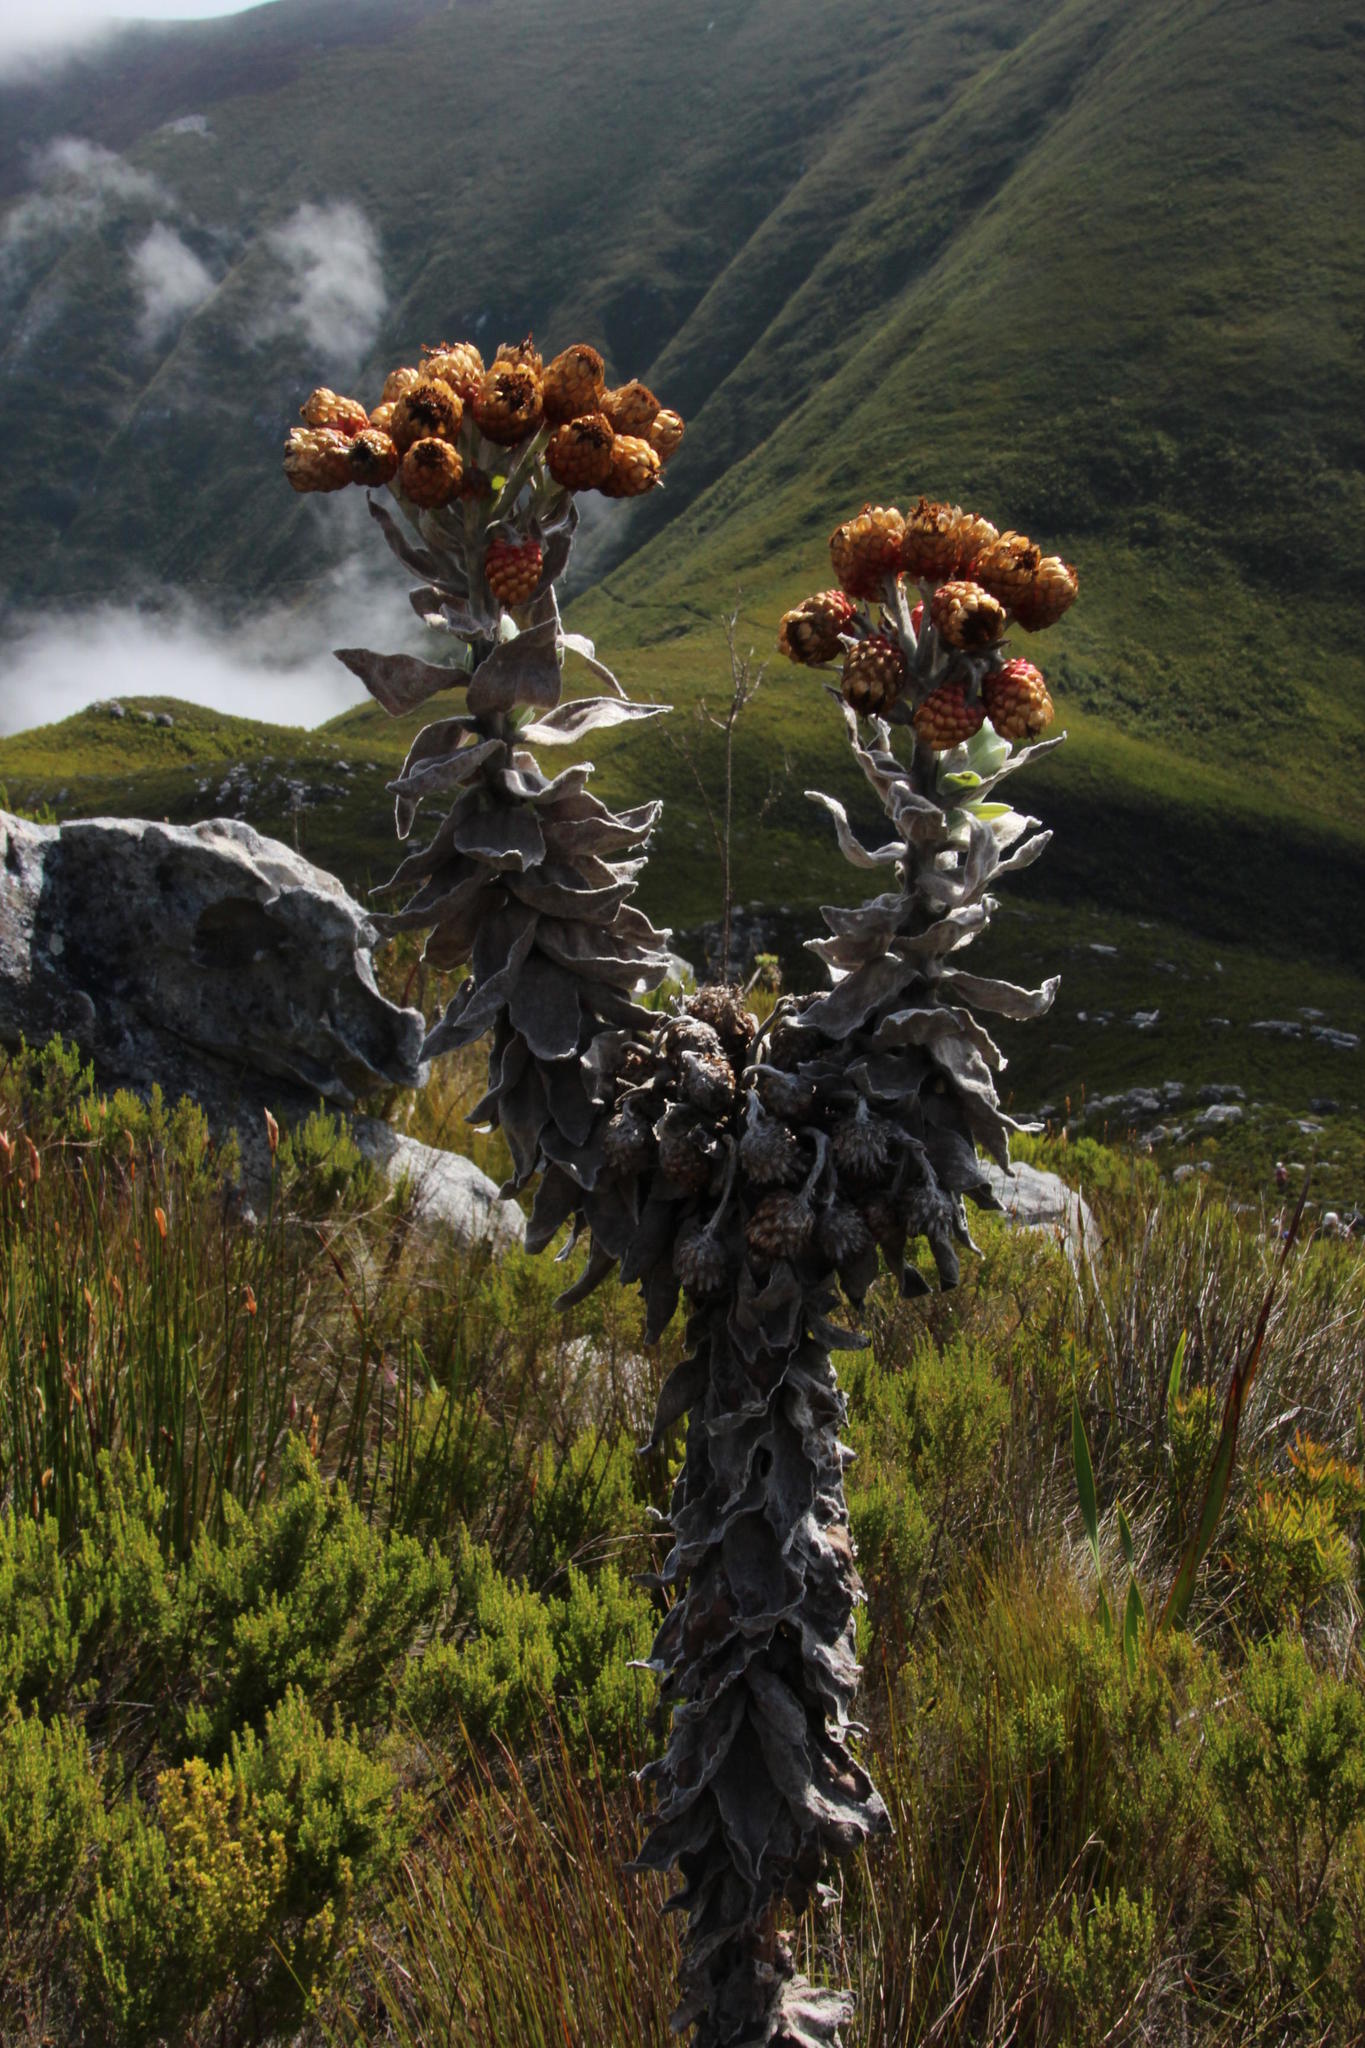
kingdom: Plantae
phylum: Tracheophyta
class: Magnoliopsida
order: Asterales
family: Asteraceae
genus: Syncarpha
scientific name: Syncarpha eximia
